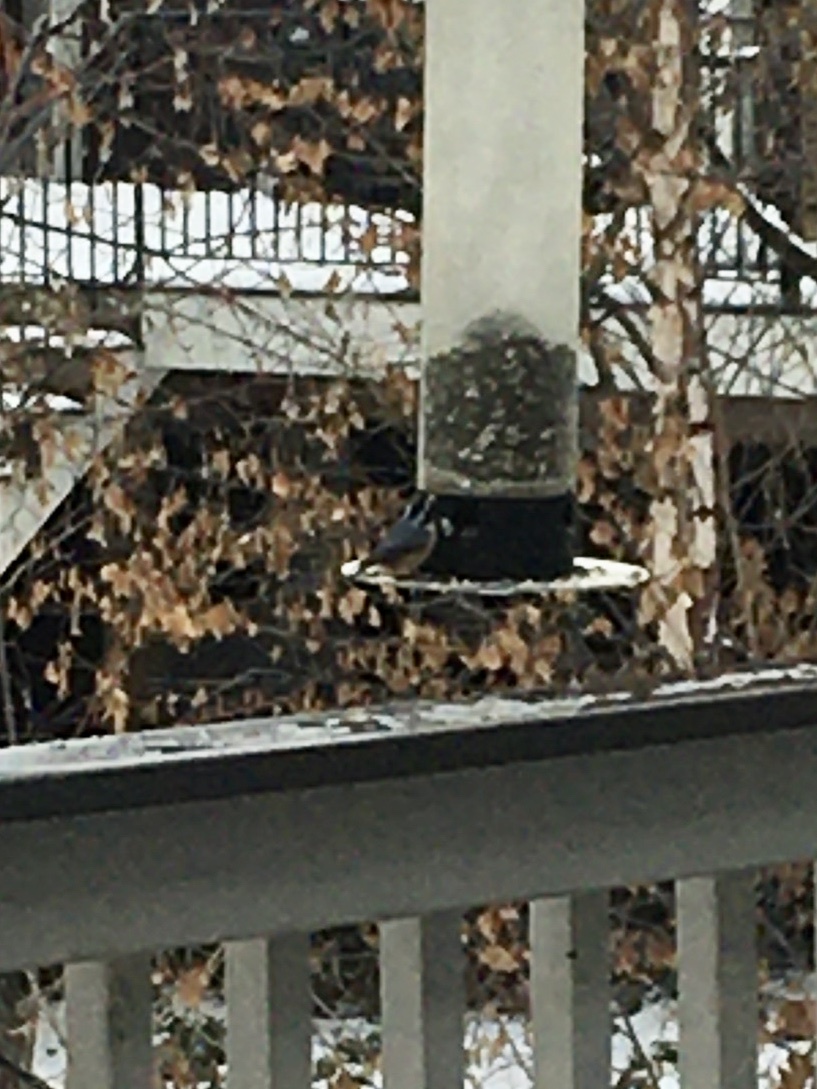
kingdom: Animalia
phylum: Chordata
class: Aves
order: Passeriformes
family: Sittidae
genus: Sitta
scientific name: Sitta canadensis
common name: Red-breasted nuthatch
